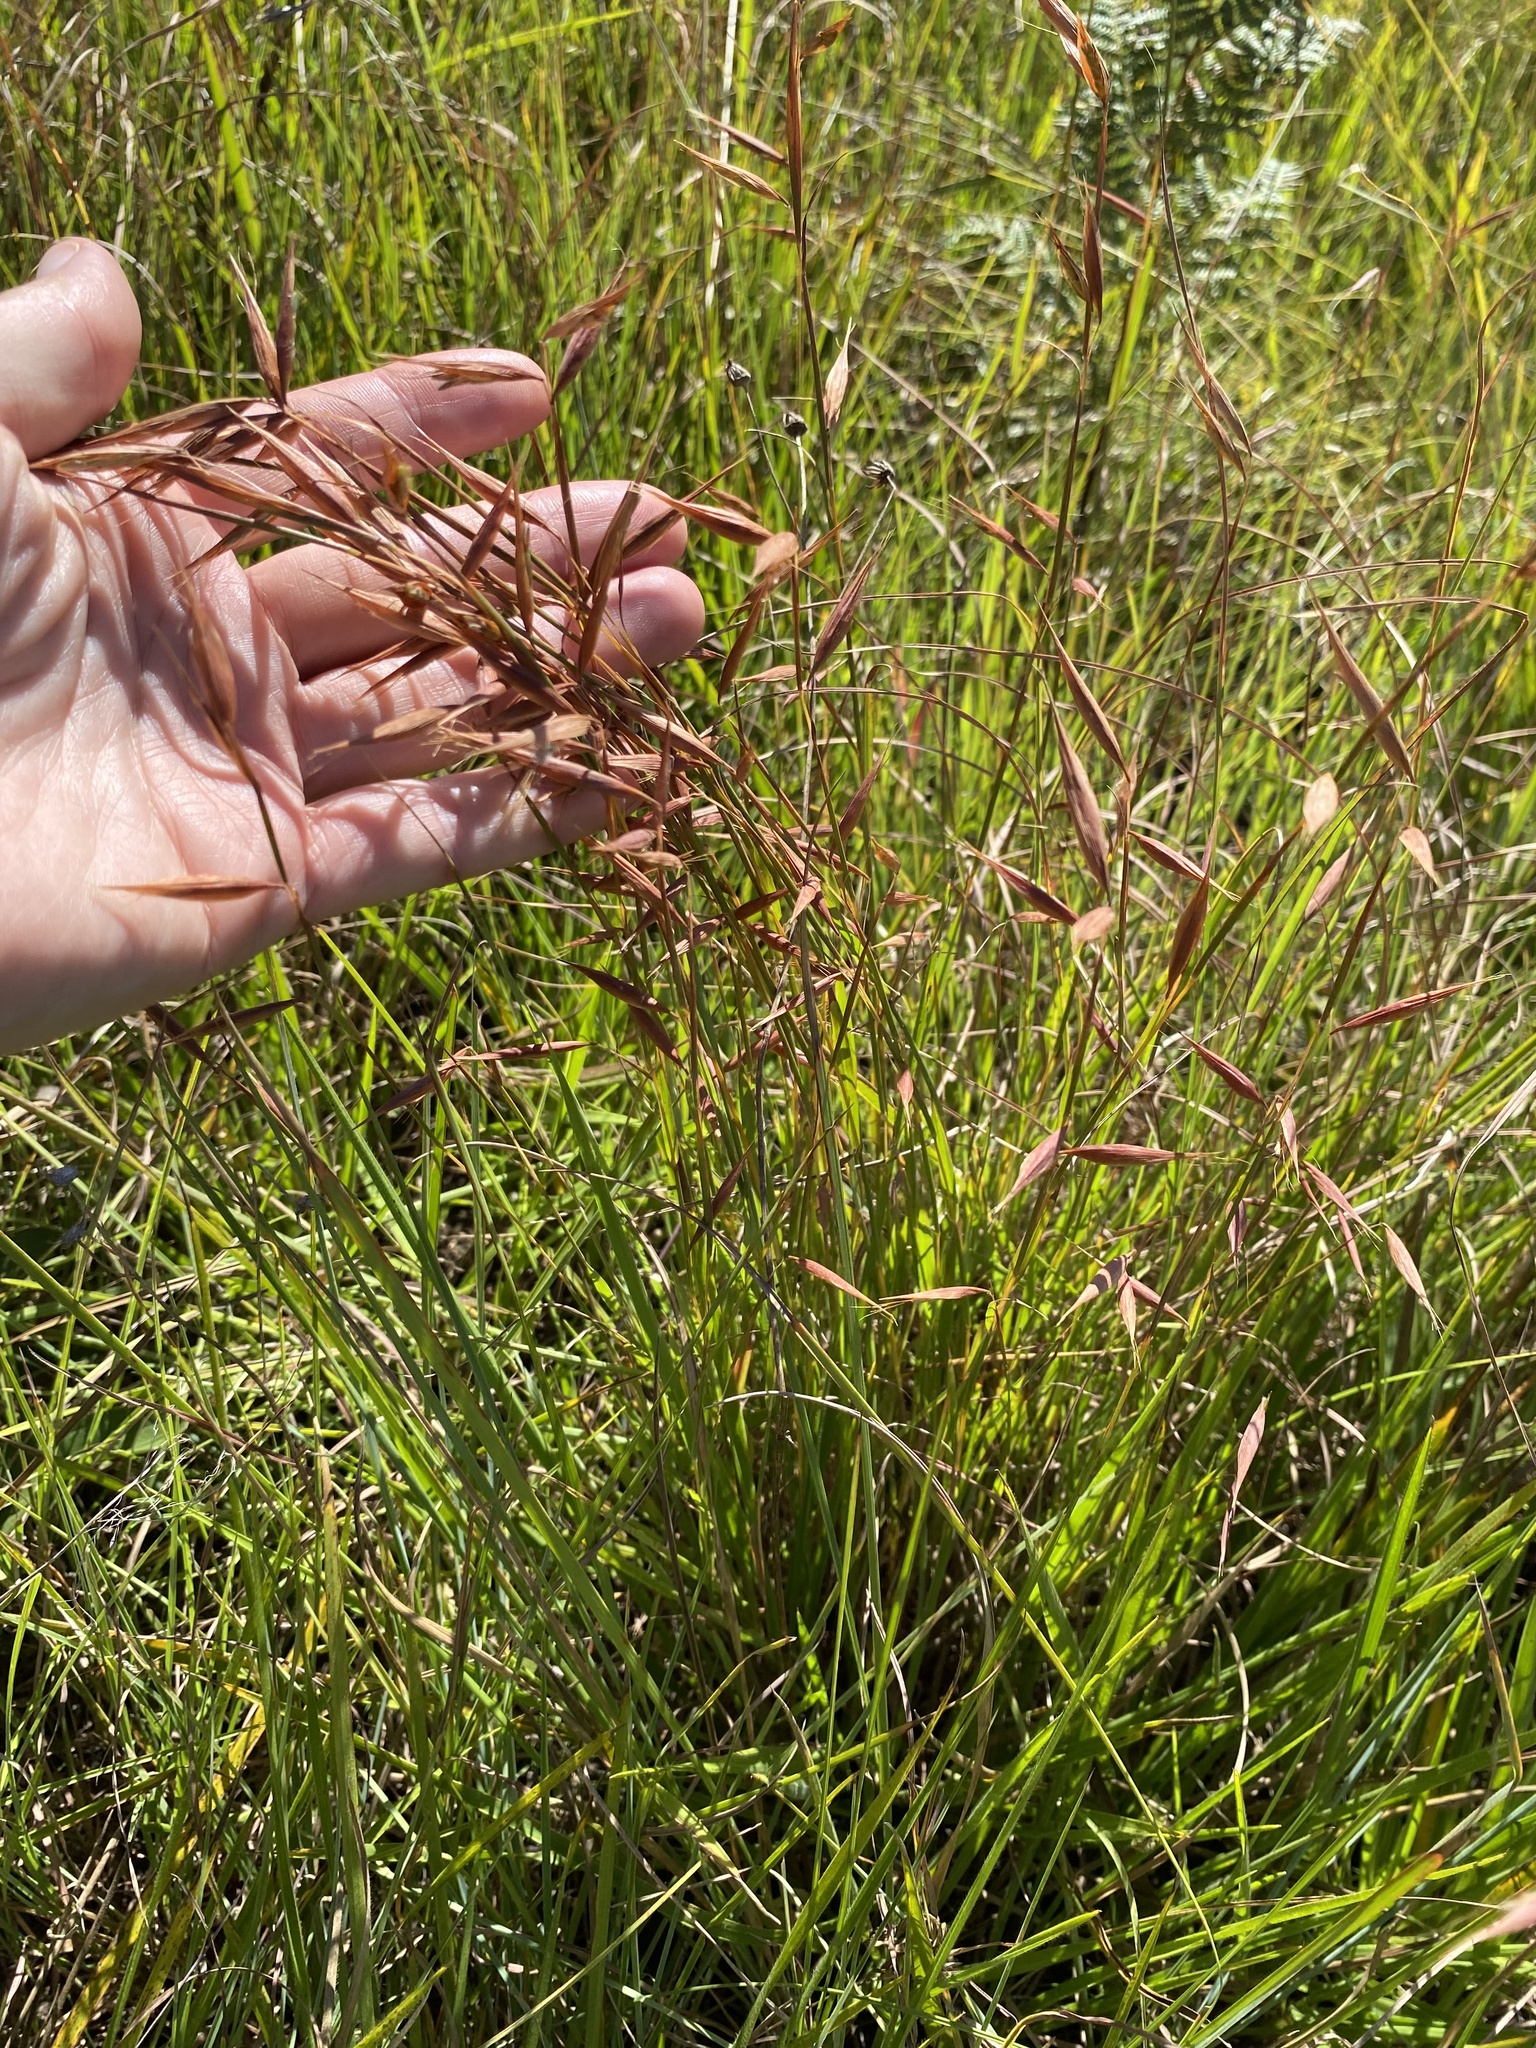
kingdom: Plantae
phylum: Tracheophyta
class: Liliopsida
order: Poales
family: Poaceae
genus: Monocymbium
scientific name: Monocymbium ceresiiforme
